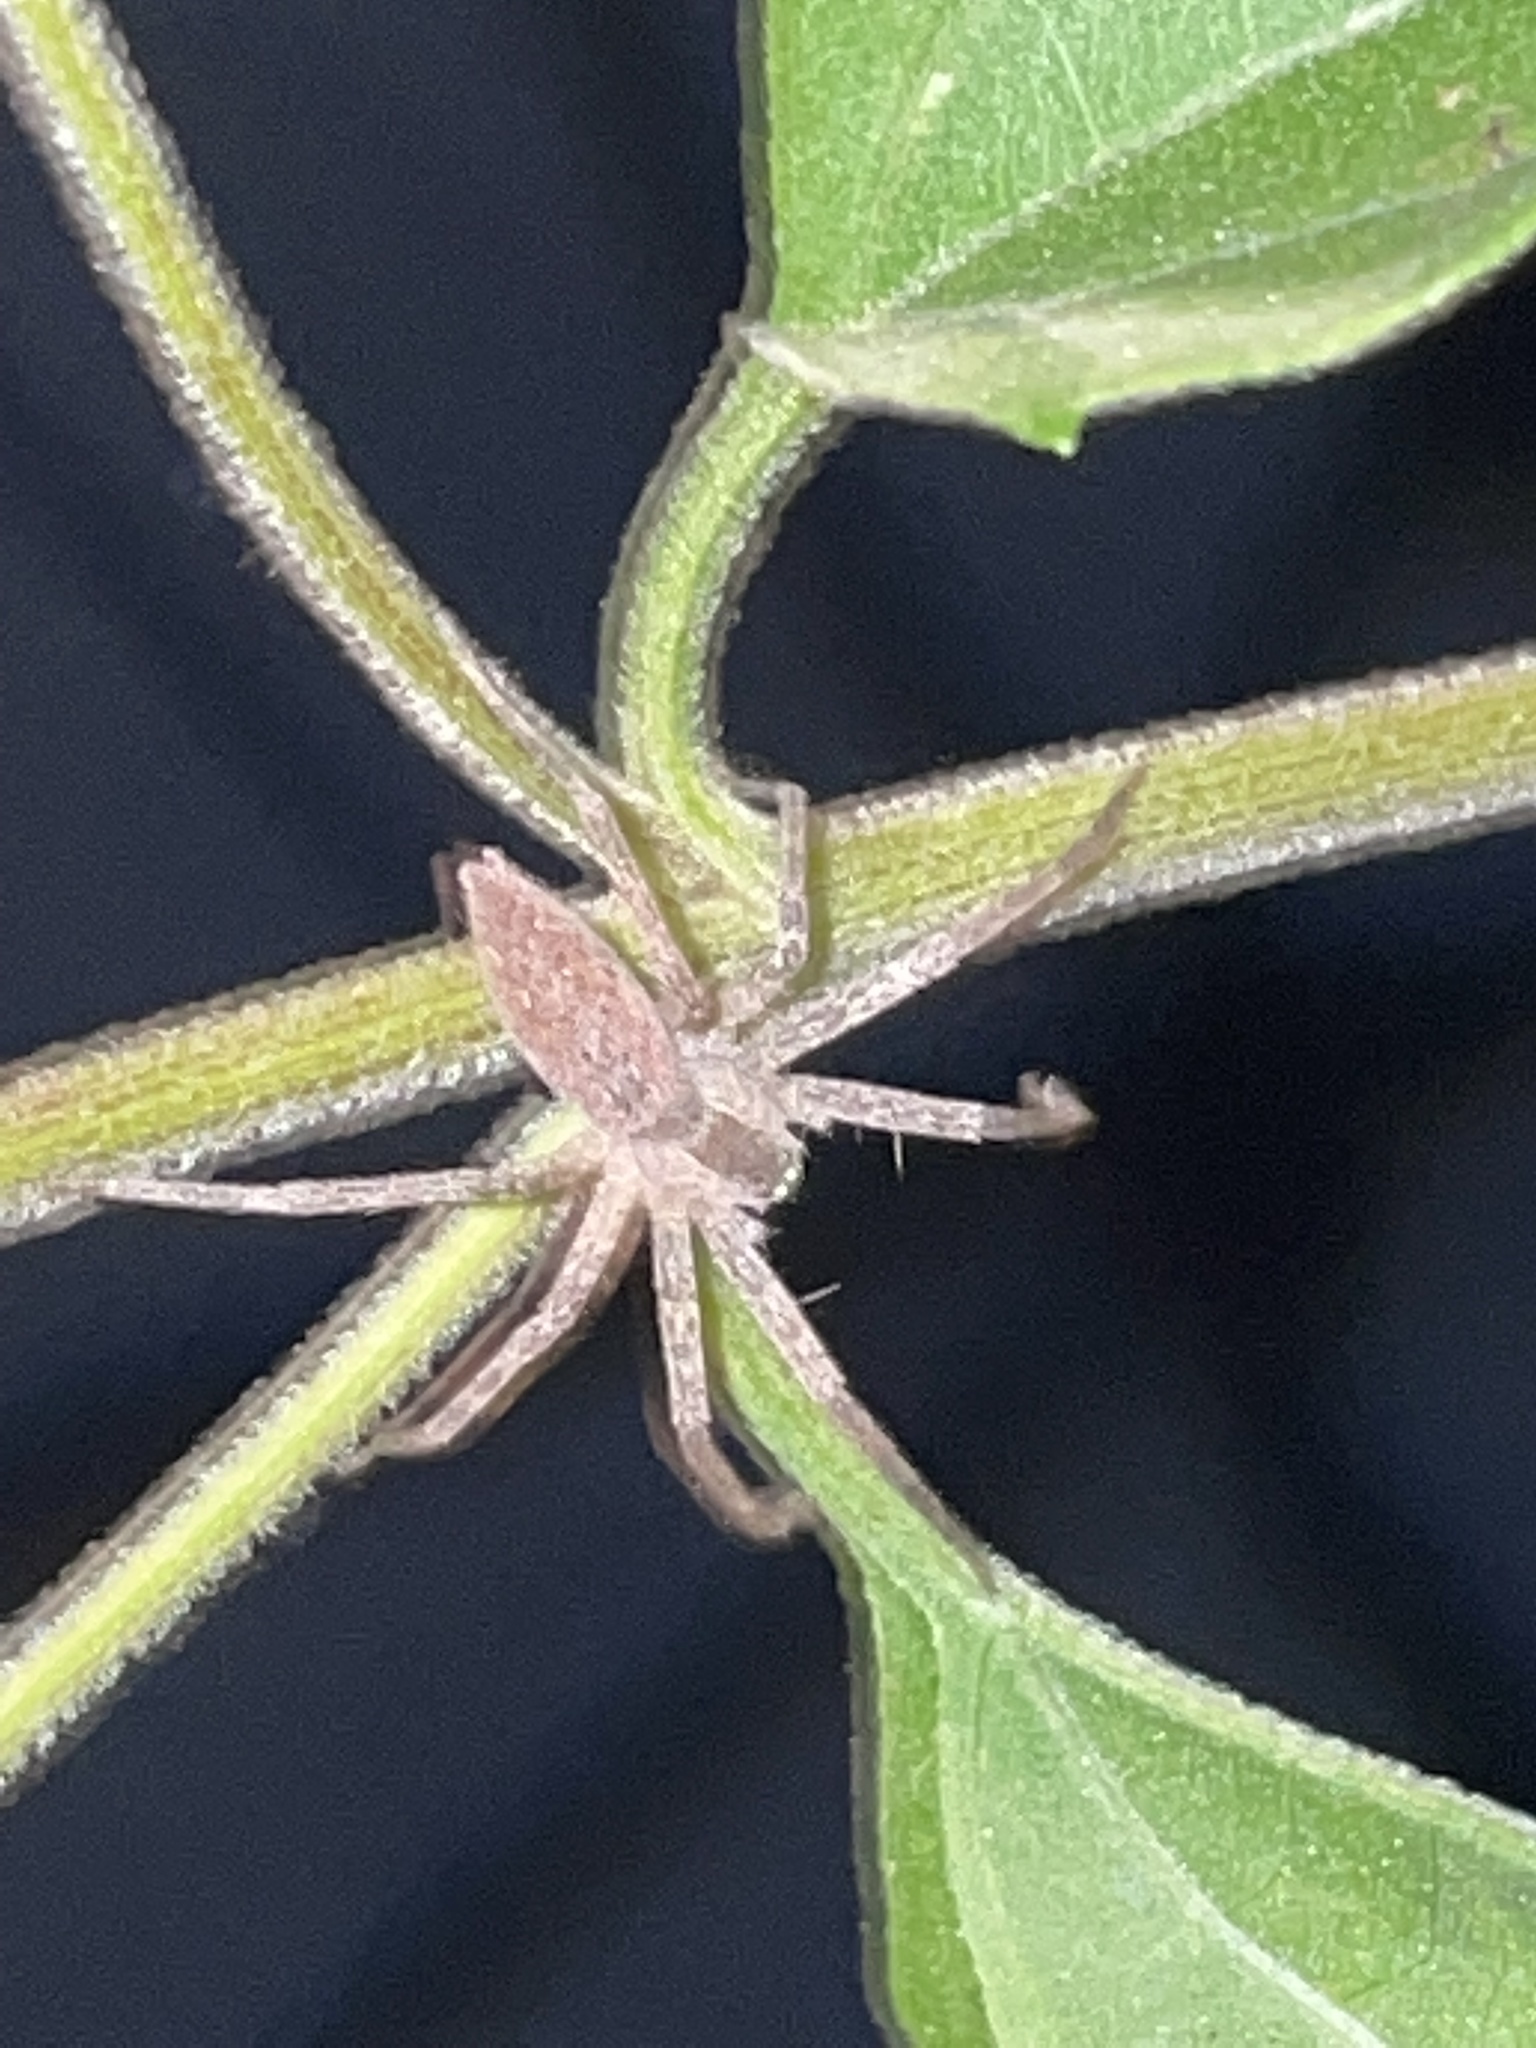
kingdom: Animalia
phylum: Arthropoda
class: Arachnida
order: Araneae
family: Pisauridae
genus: Pisaurina
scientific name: Pisaurina mira
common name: American nursery web spider
